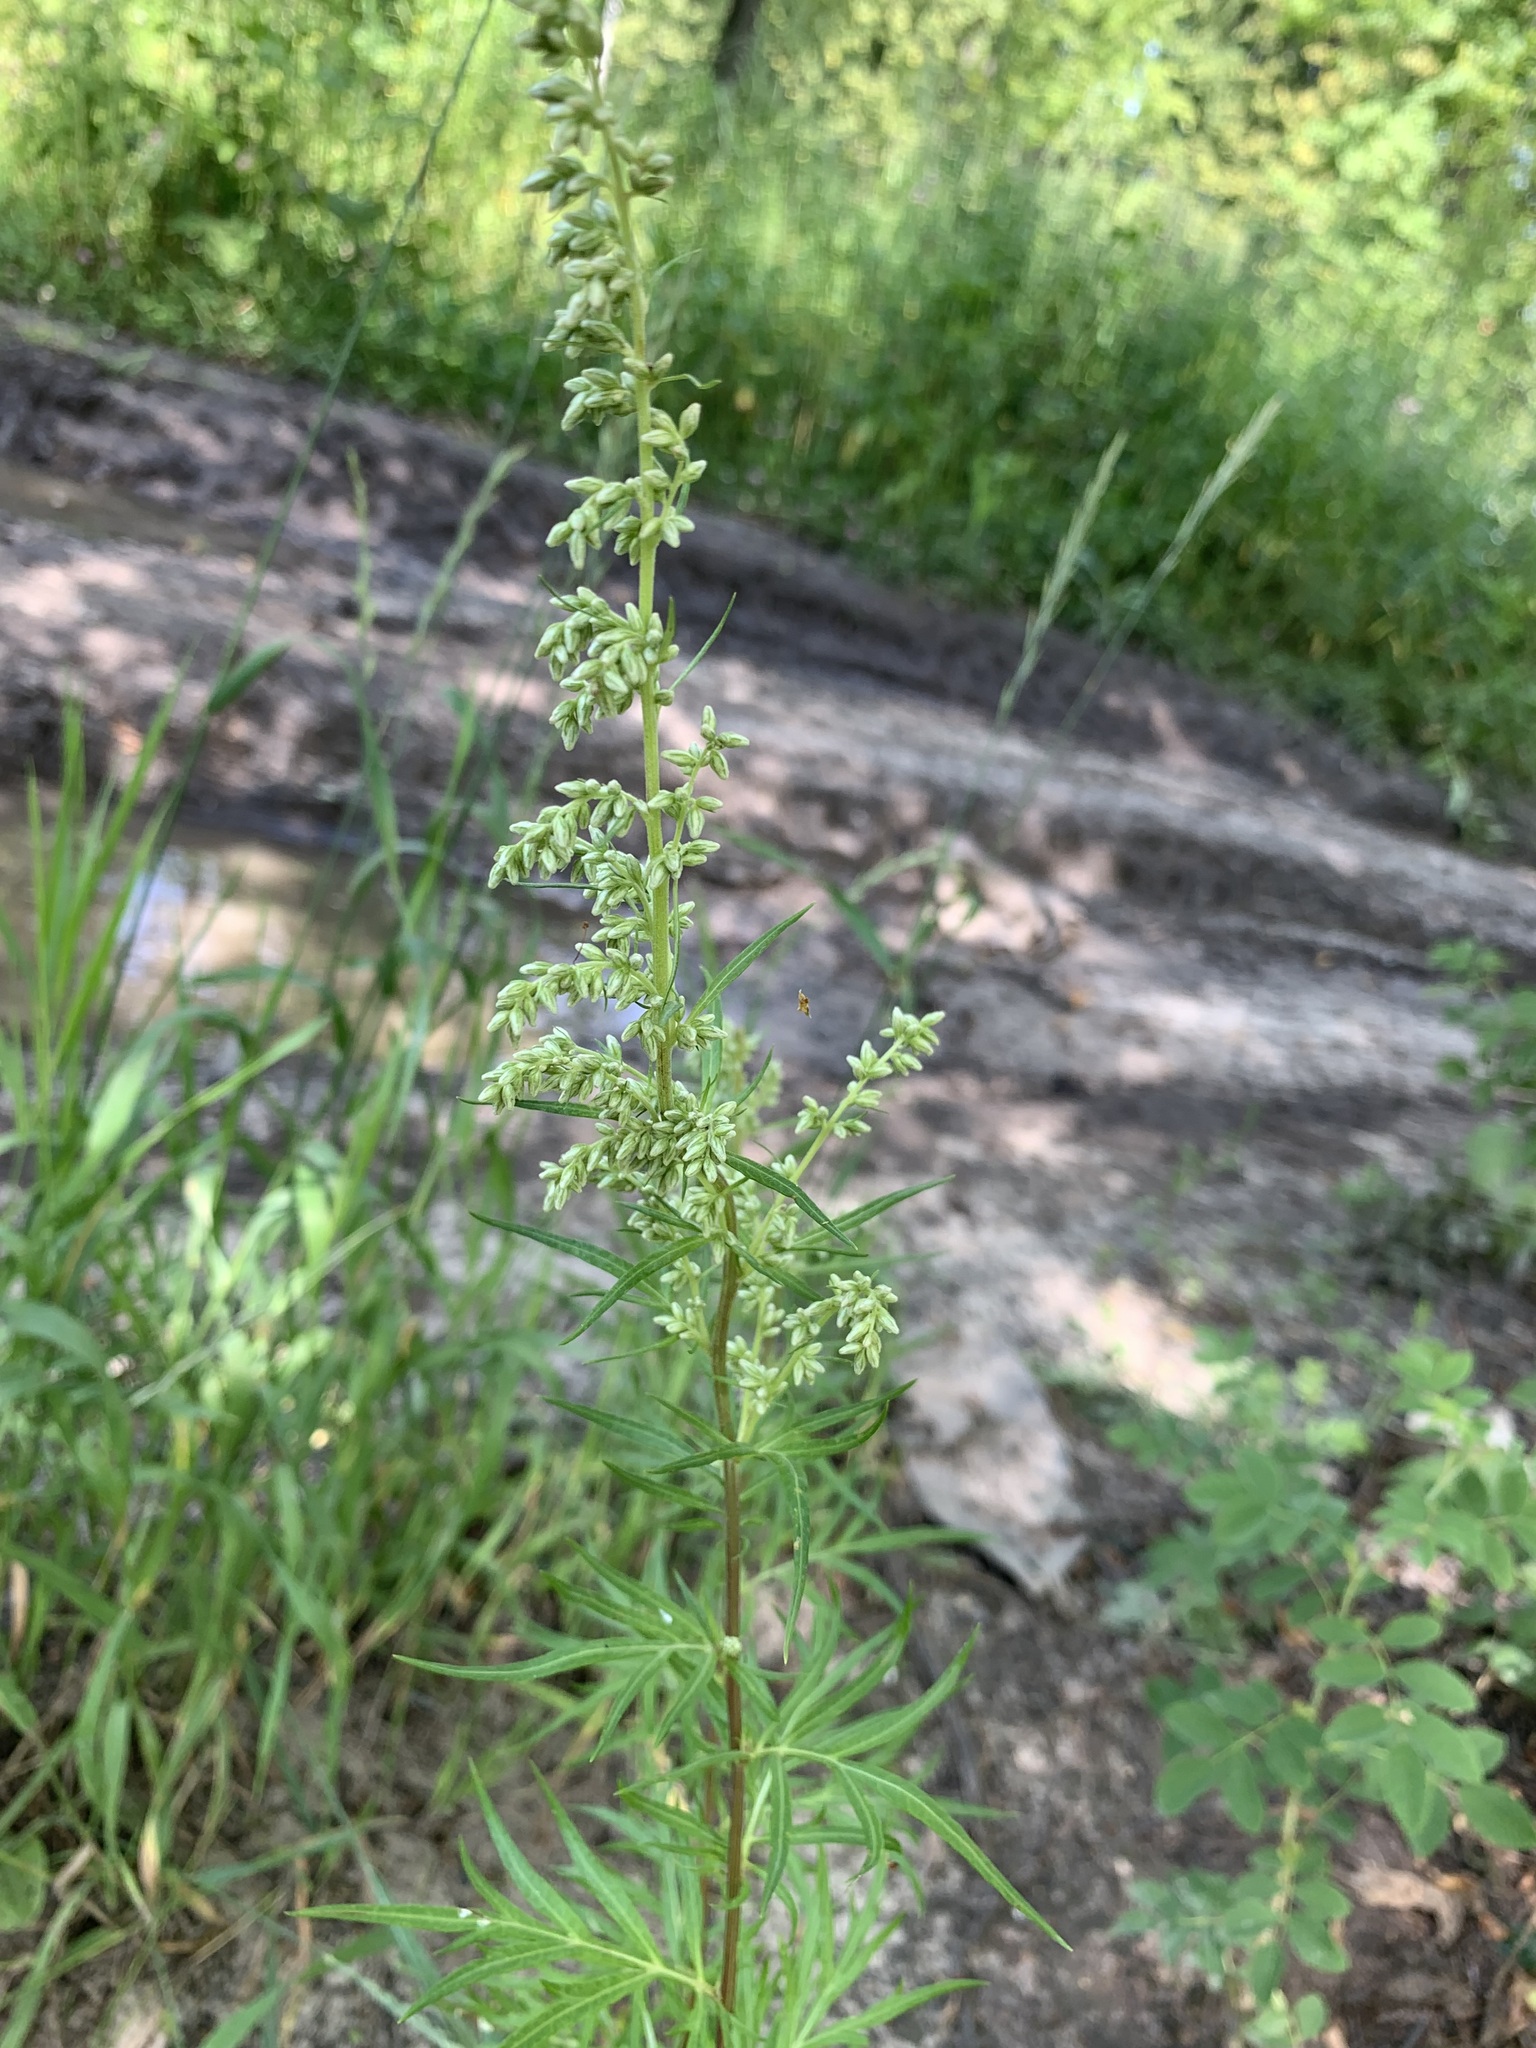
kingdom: Plantae
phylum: Tracheophyta
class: Magnoliopsida
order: Asterales
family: Asteraceae
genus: Artemisia
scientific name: Artemisia vulgaris
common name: Mugwort
